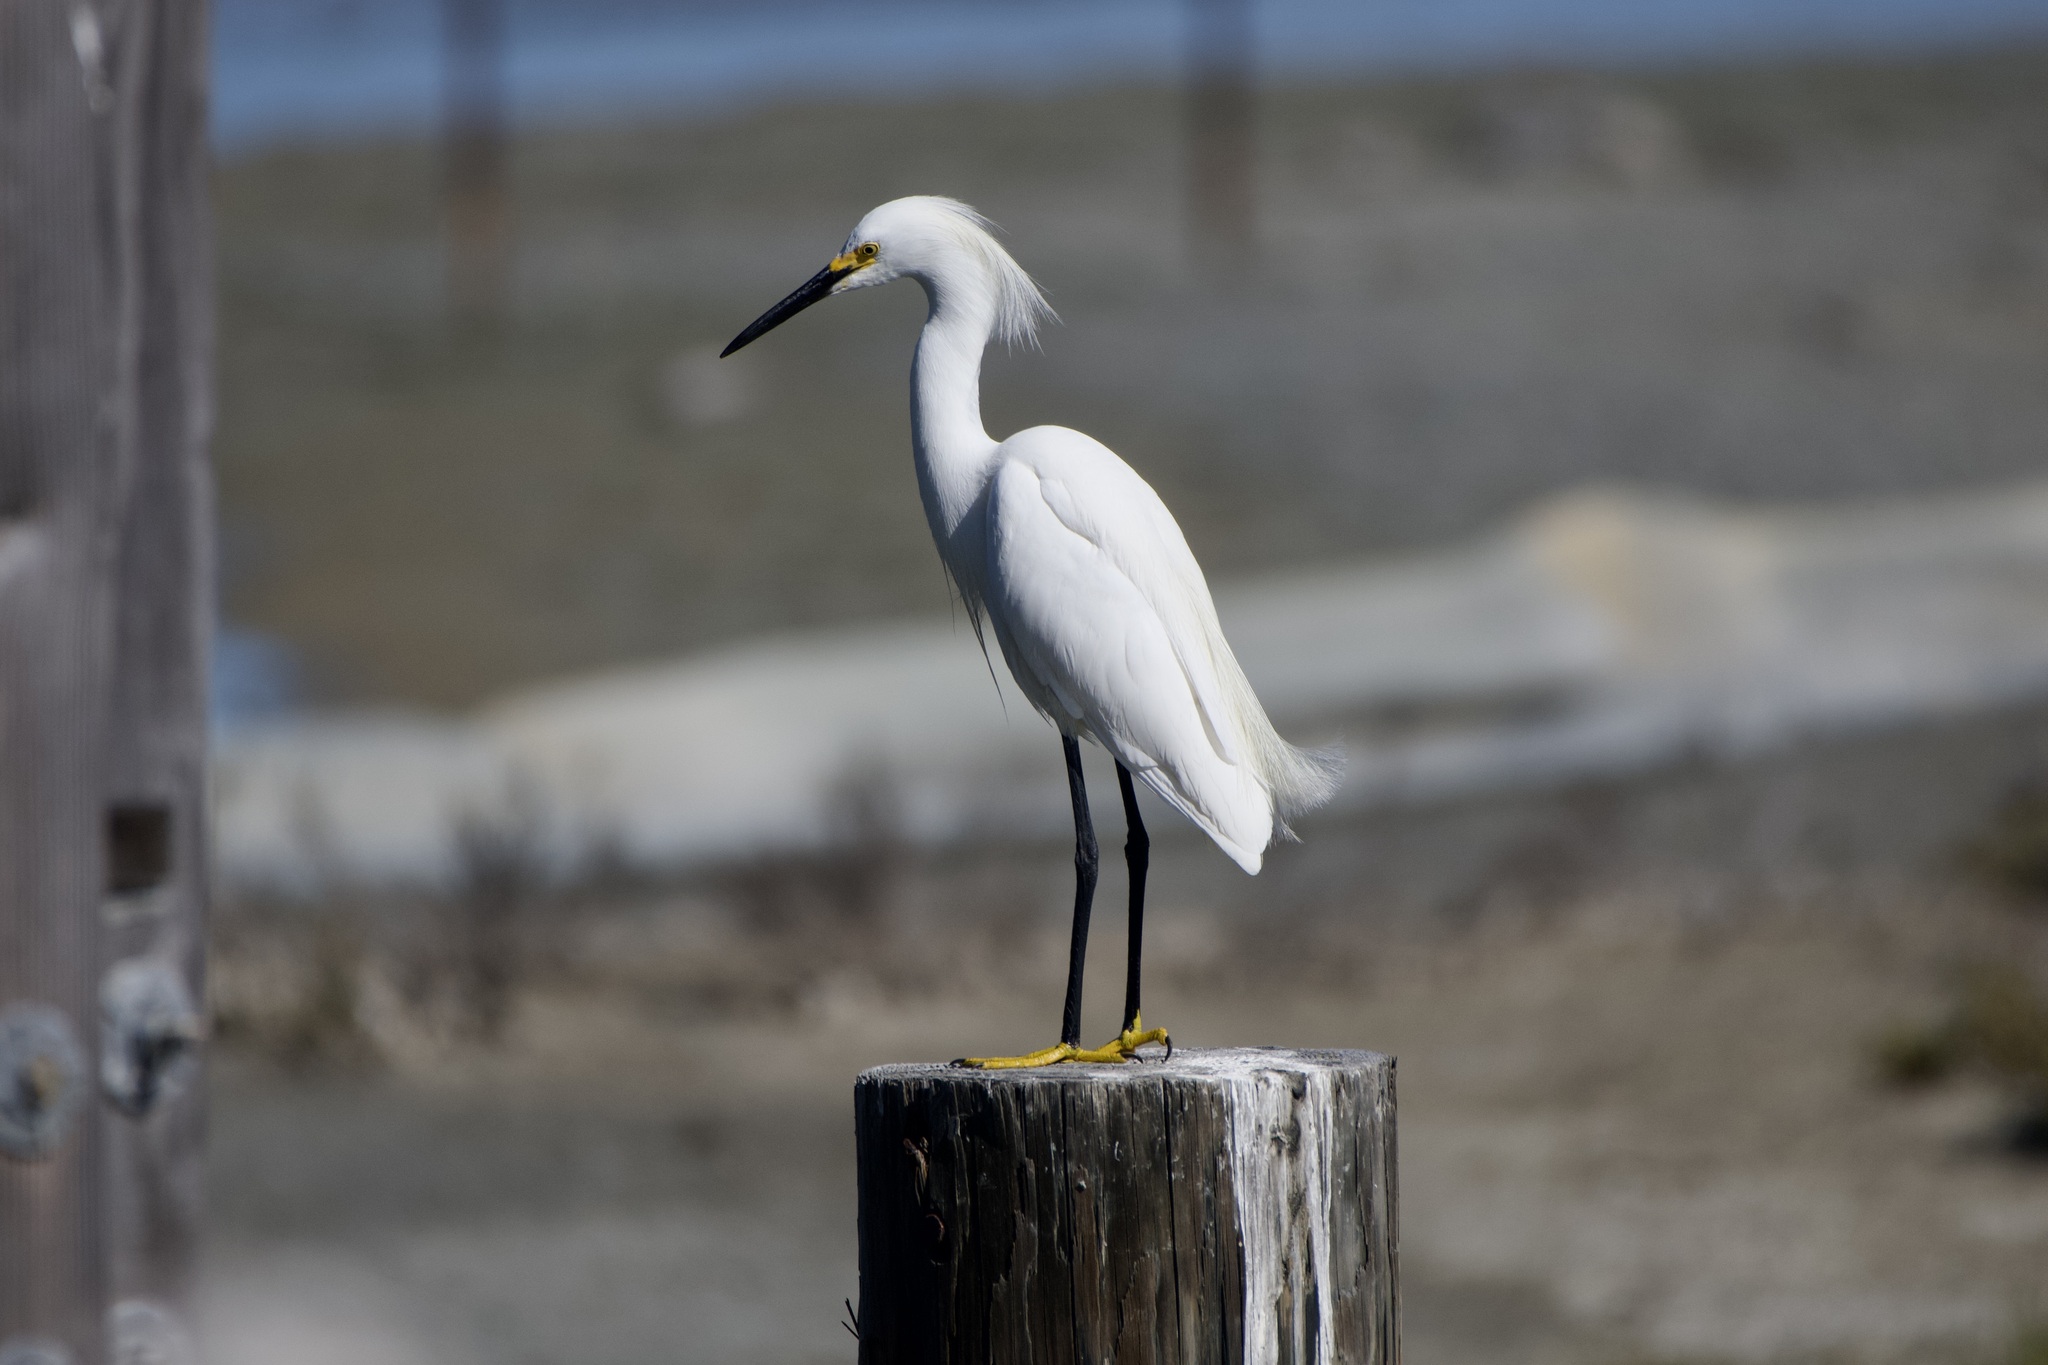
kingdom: Animalia
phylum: Chordata
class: Aves
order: Pelecaniformes
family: Ardeidae
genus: Egretta
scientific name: Egretta thula
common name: Snowy egret
